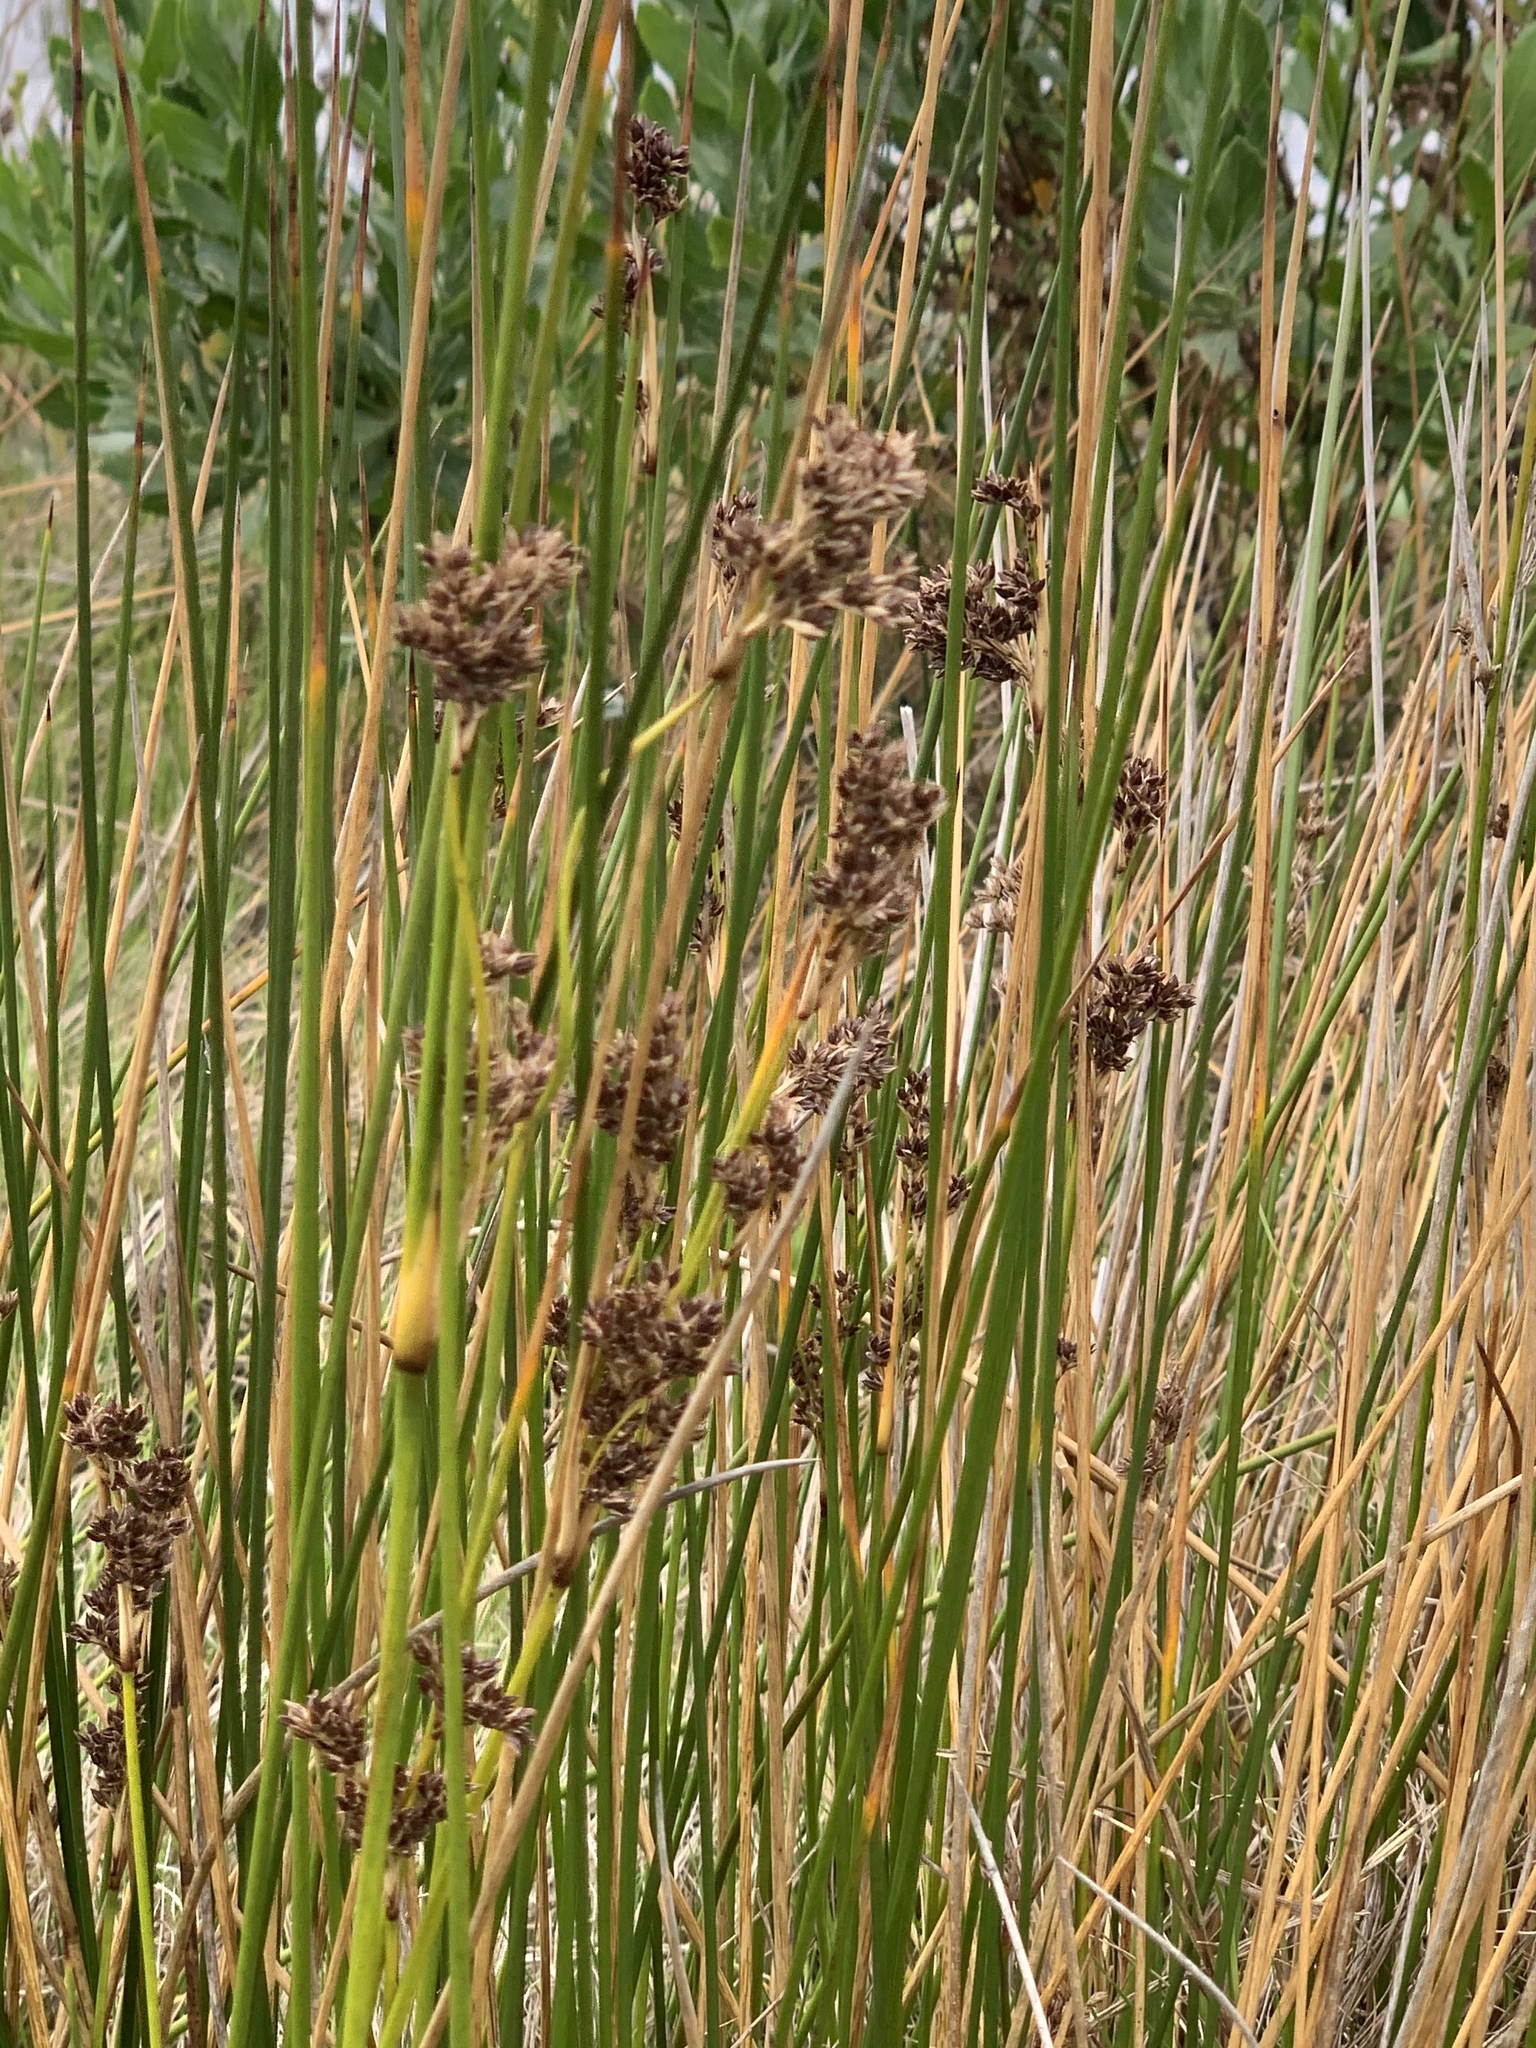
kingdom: Plantae
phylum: Tracheophyta
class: Liliopsida
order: Poales
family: Juncaceae
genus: Juncus
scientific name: Juncus kraussii
